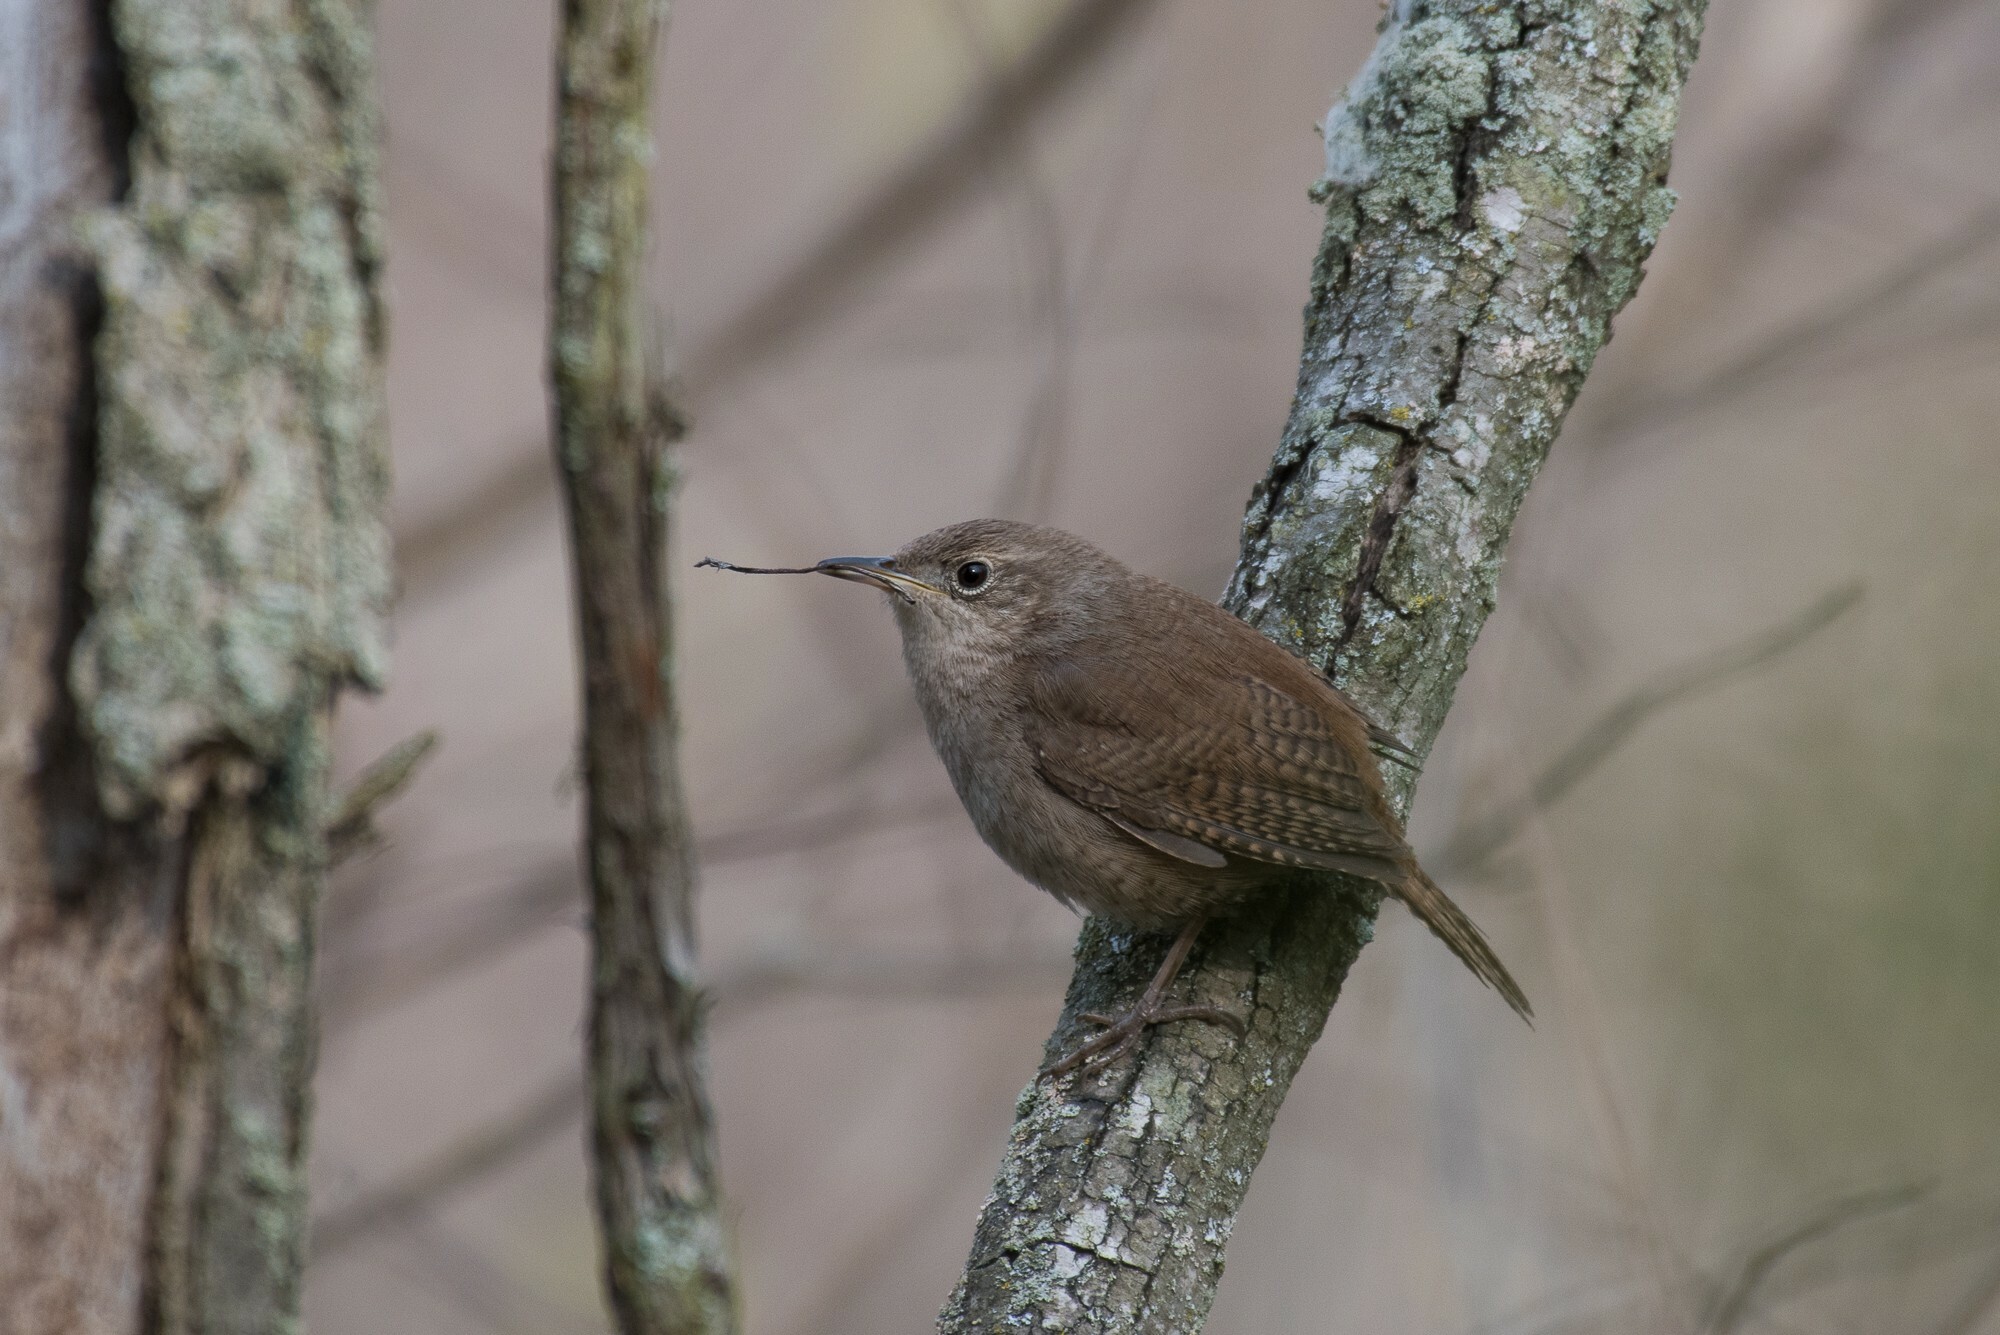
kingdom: Animalia
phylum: Chordata
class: Aves
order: Passeriformes
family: Troglodytidae
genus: Troglodytes
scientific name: Troglodytes aedon
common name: House wren
